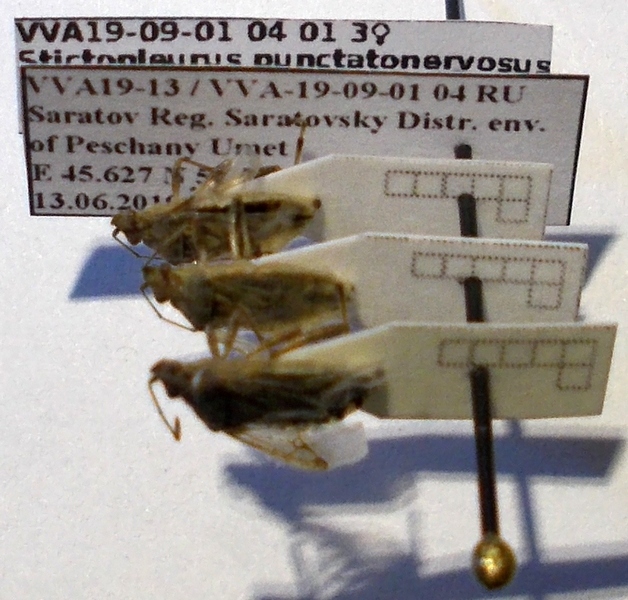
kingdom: Animalia
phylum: Arthropoda
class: Insecta
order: Hemiptera
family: Rhopalidae
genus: Stictopleurus
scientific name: Stictopleurus punctatonervosus
